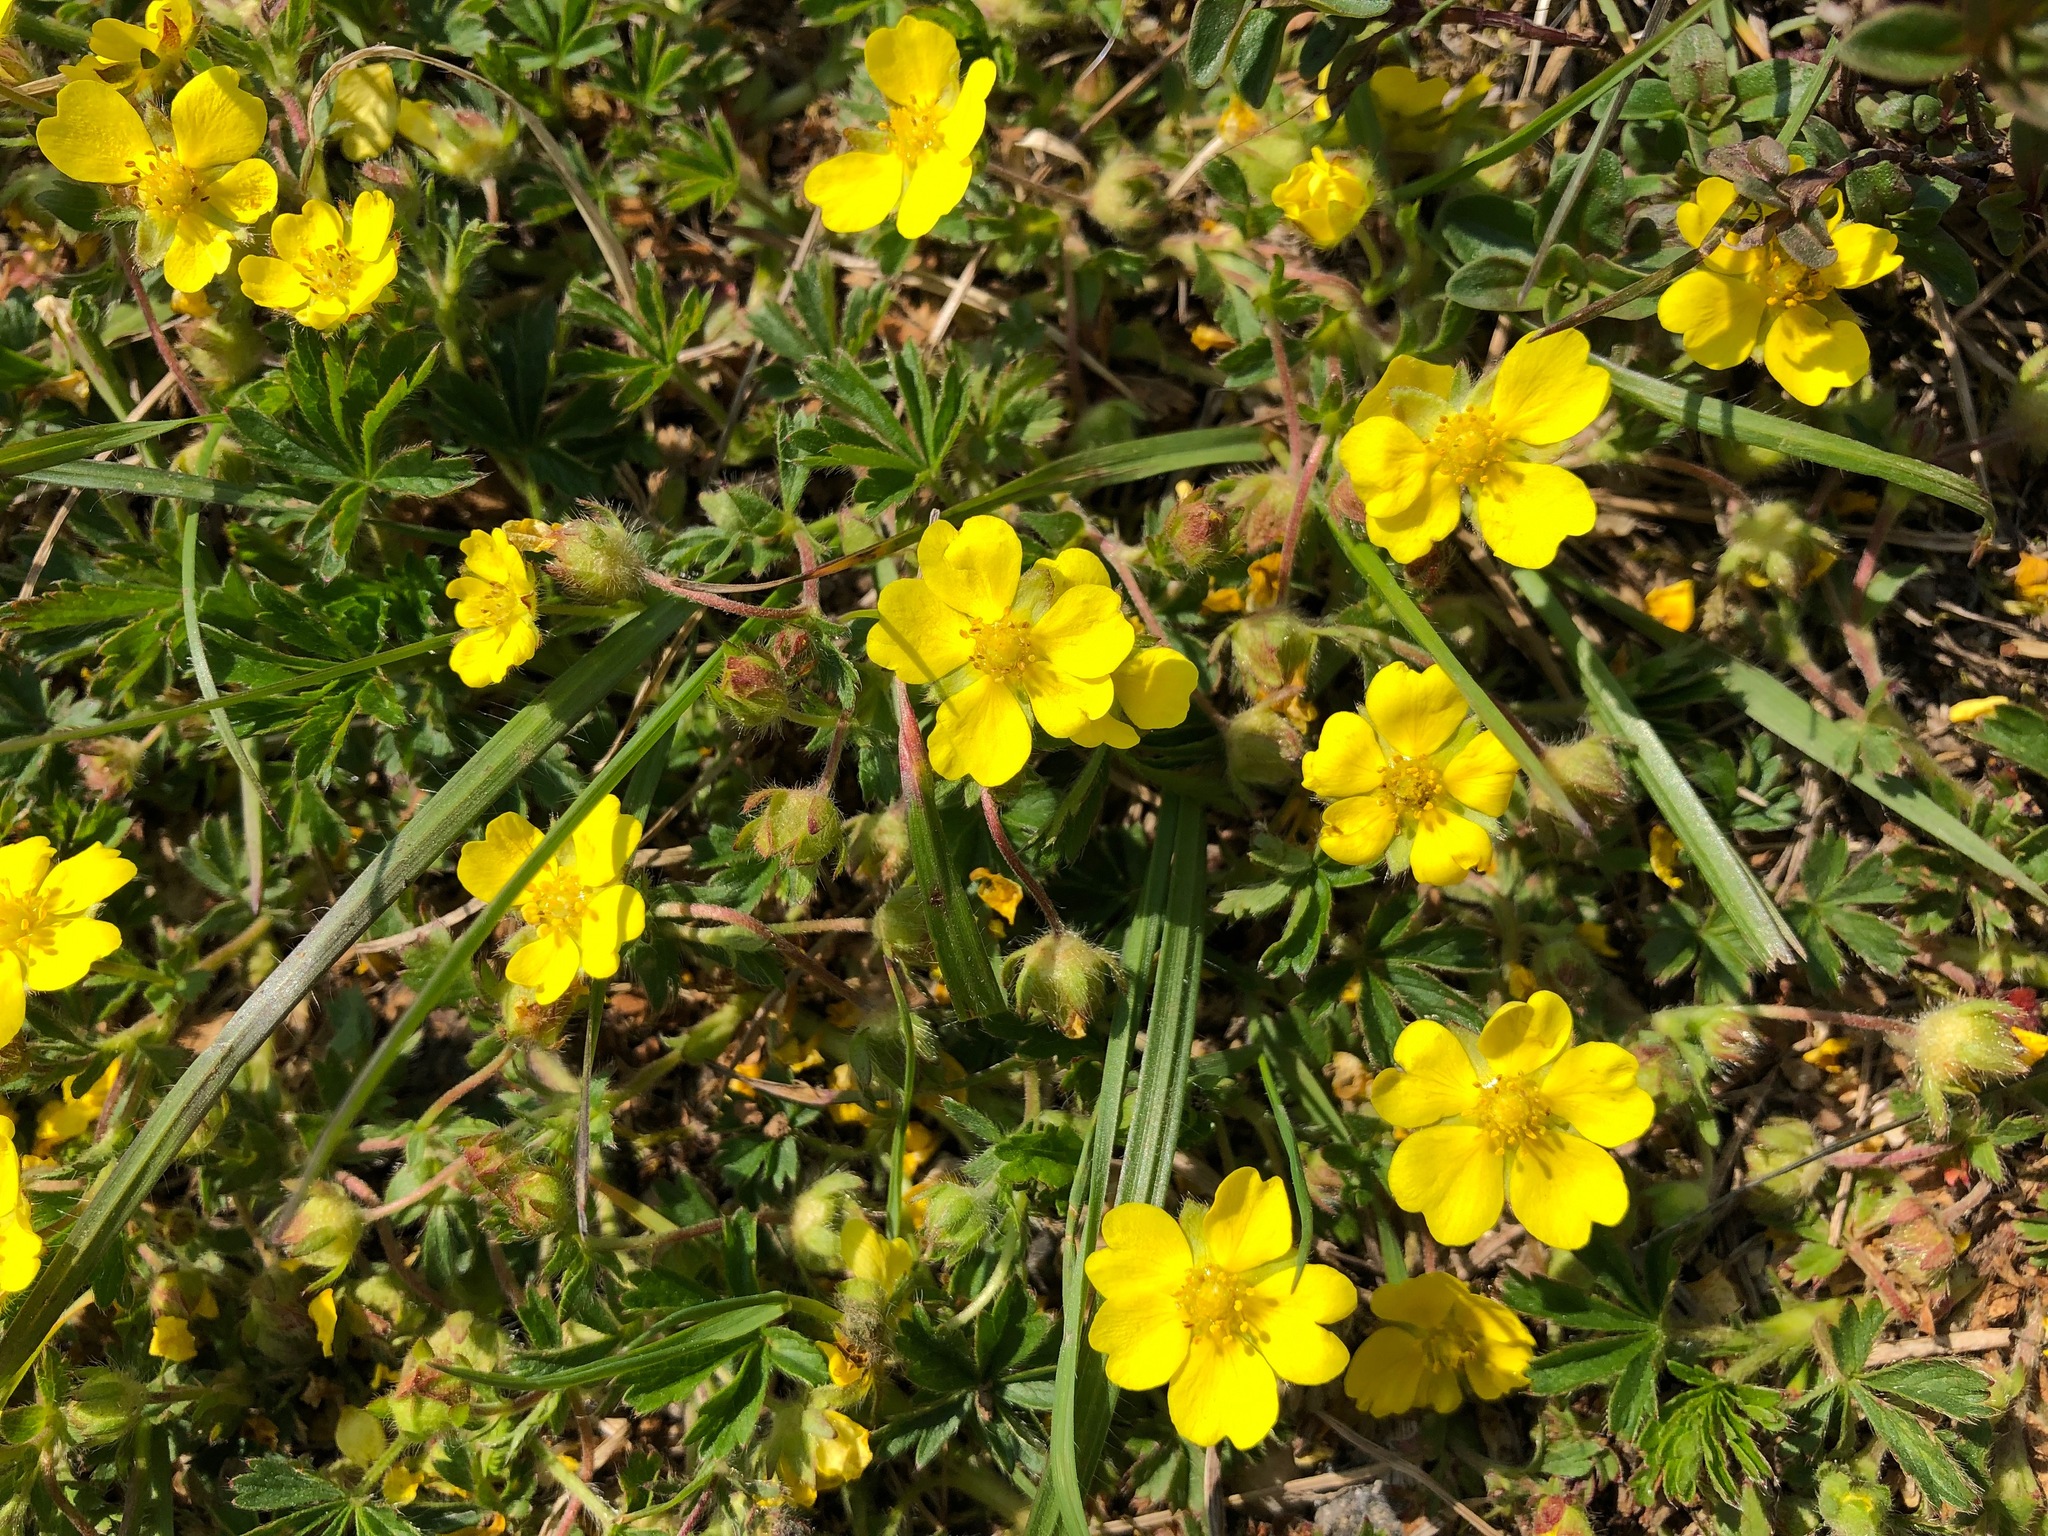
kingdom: Plantae
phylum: Tracheophyta
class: Magnoliopsida
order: Rosales
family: Rosaceae
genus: Potentilla
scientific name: Potentilla verna
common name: Spring cinquefoil
